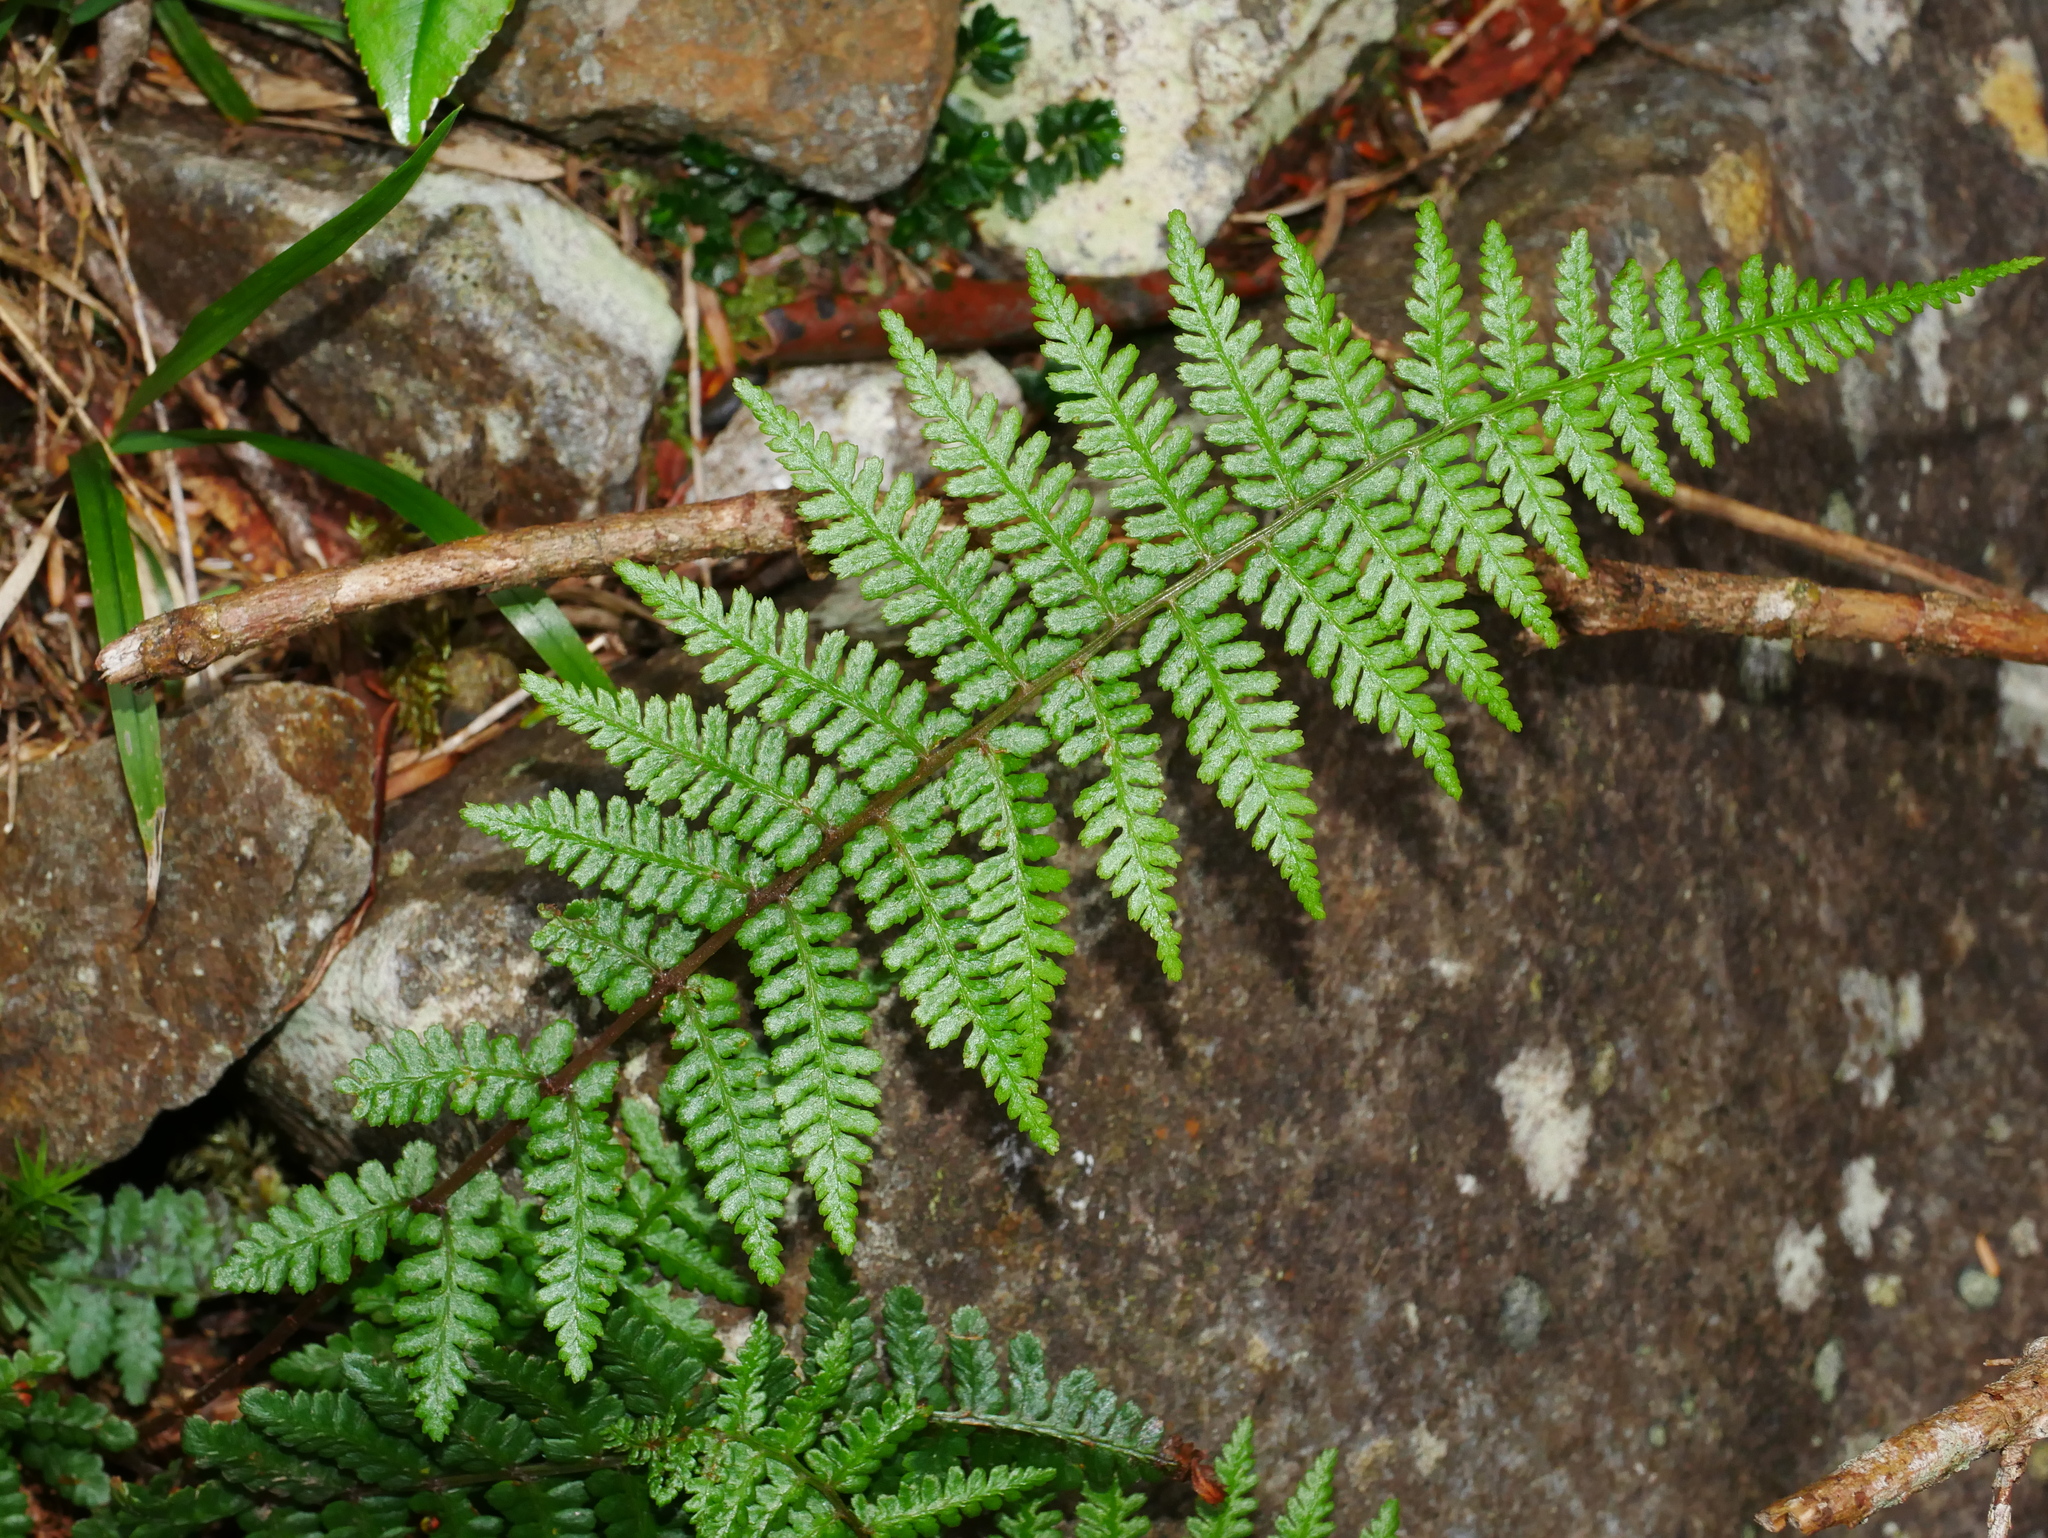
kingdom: Plantae
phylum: Tracheophyta
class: Polypodiopsida
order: Polypodiales
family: Athyriaceae
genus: Athyrium
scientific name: Athyrium oppositipennum
